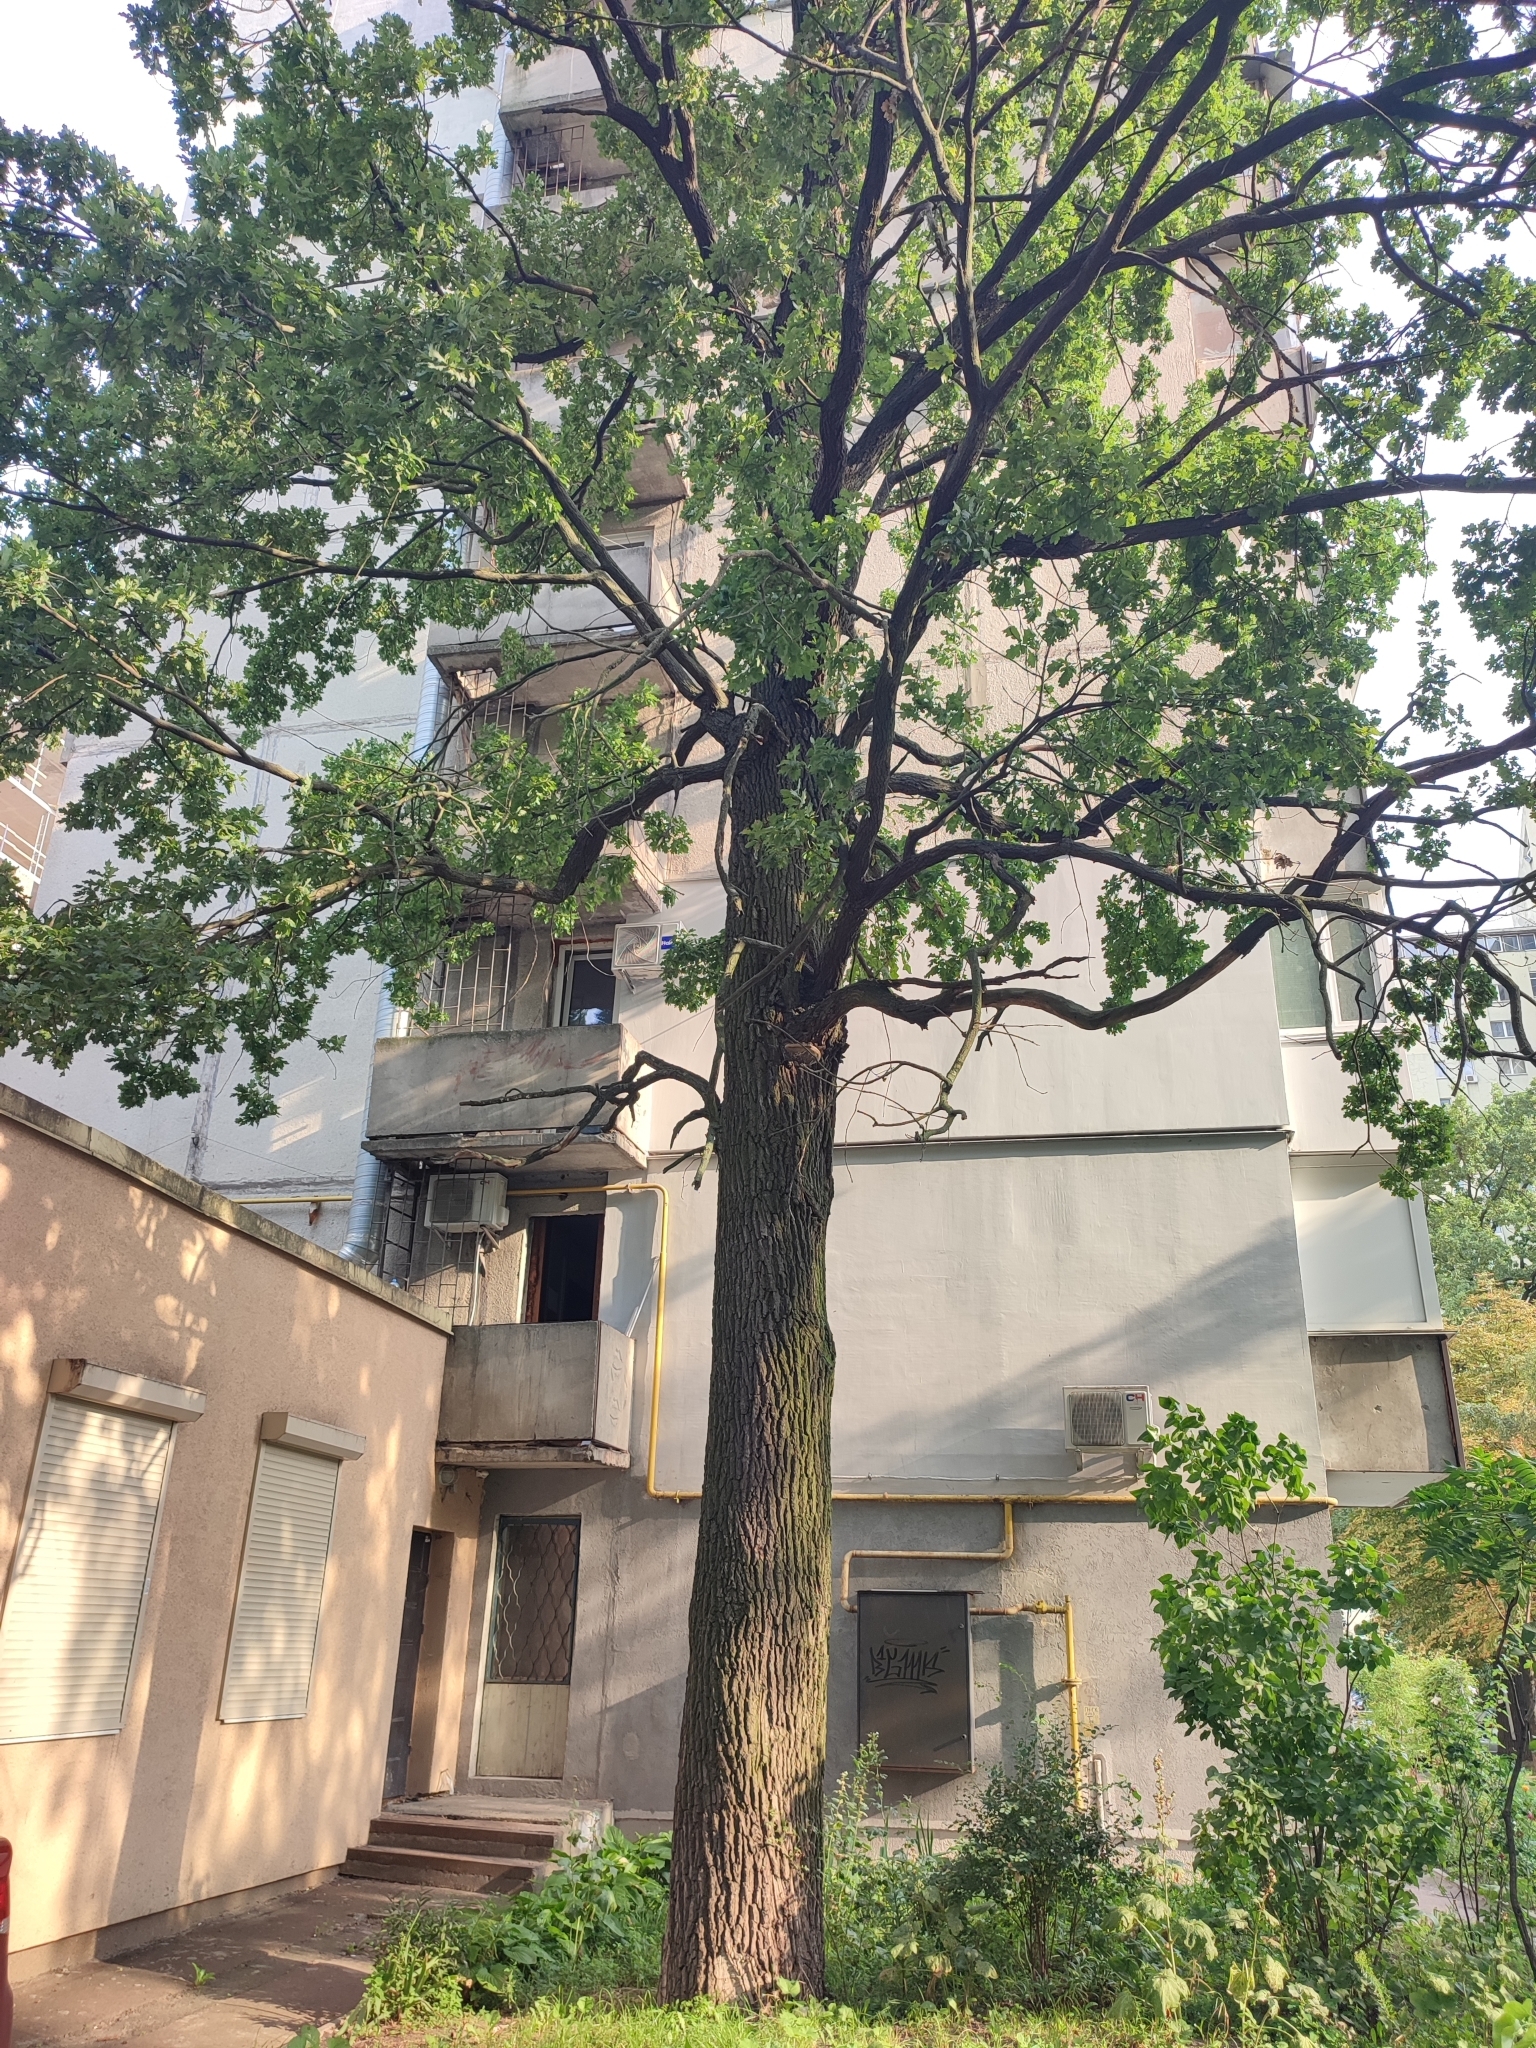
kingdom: Plantae
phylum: Tracheophyta
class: Magnoliopsida
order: Fagales
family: Fagaceae
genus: Quercus
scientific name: Quercus robur
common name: Pedunculate oak
